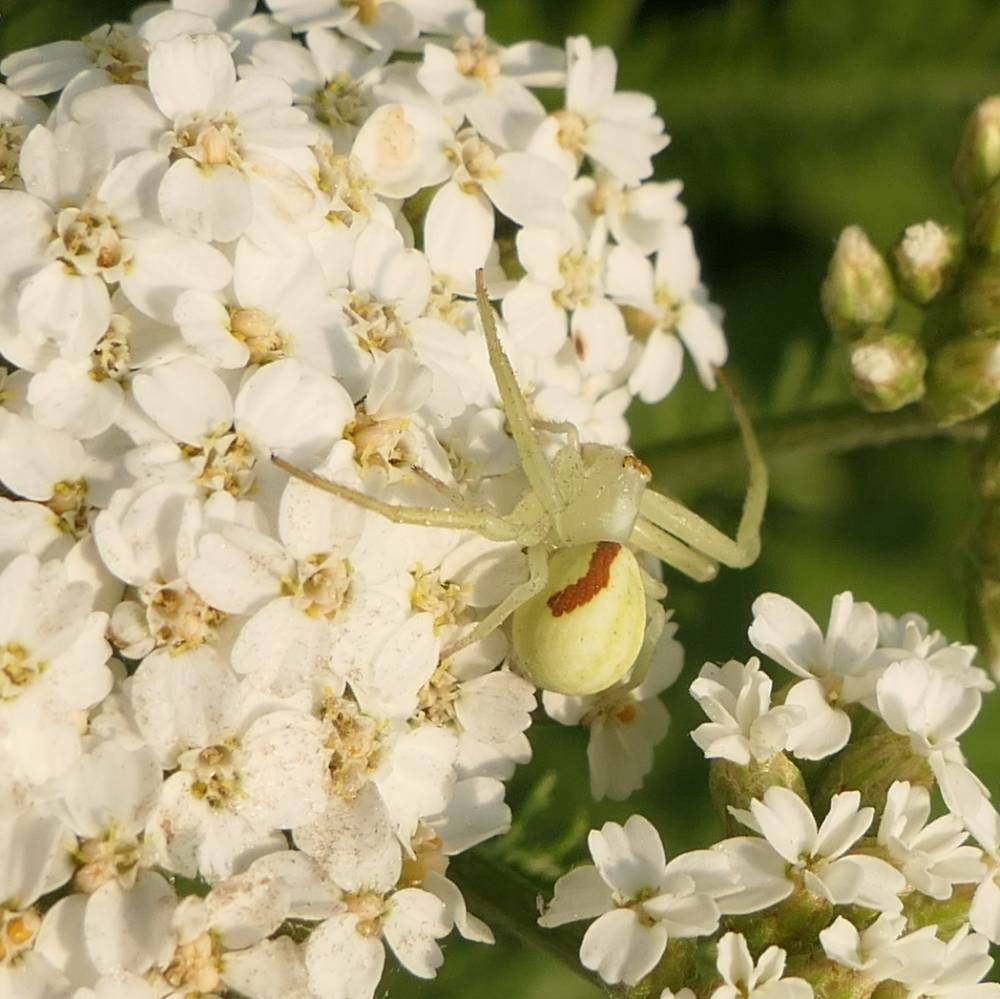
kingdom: Animalia
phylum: Arthropoda
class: Arachnida
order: Araneae
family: Thomisidae
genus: Misumena
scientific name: Misumena vatia
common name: Goldenrod crab spider
